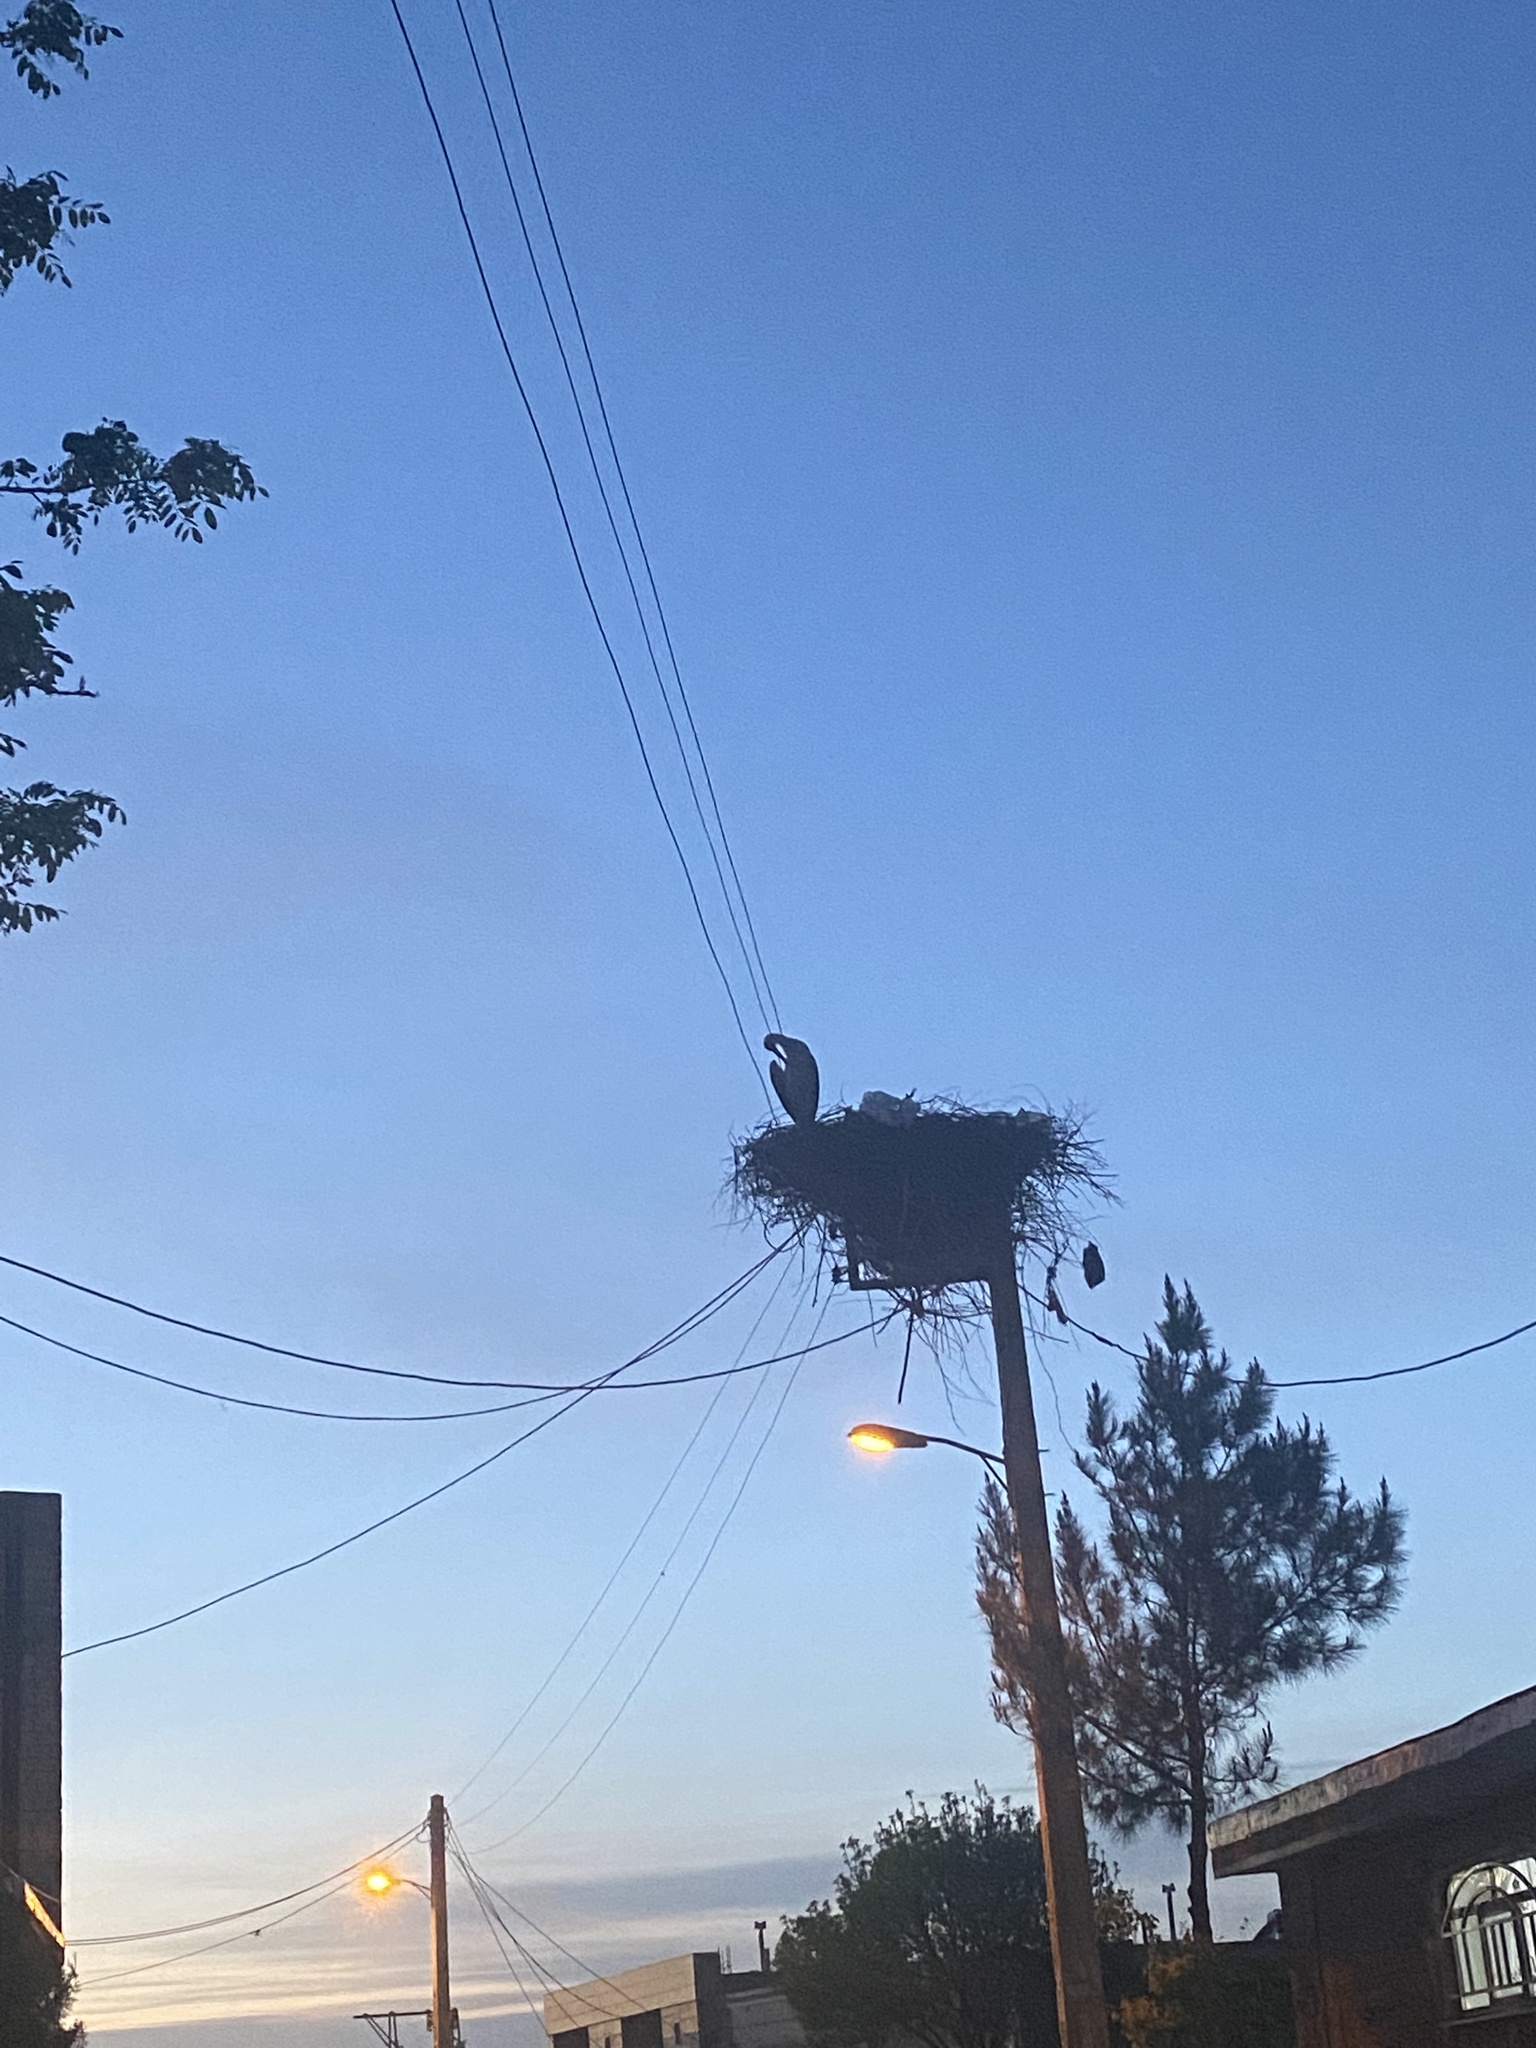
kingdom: Animalia
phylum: Chordata
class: Aves
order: Ciconiiformes
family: Ciconiidae
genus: Ciconia
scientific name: Ciconia ciconia
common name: White stork
